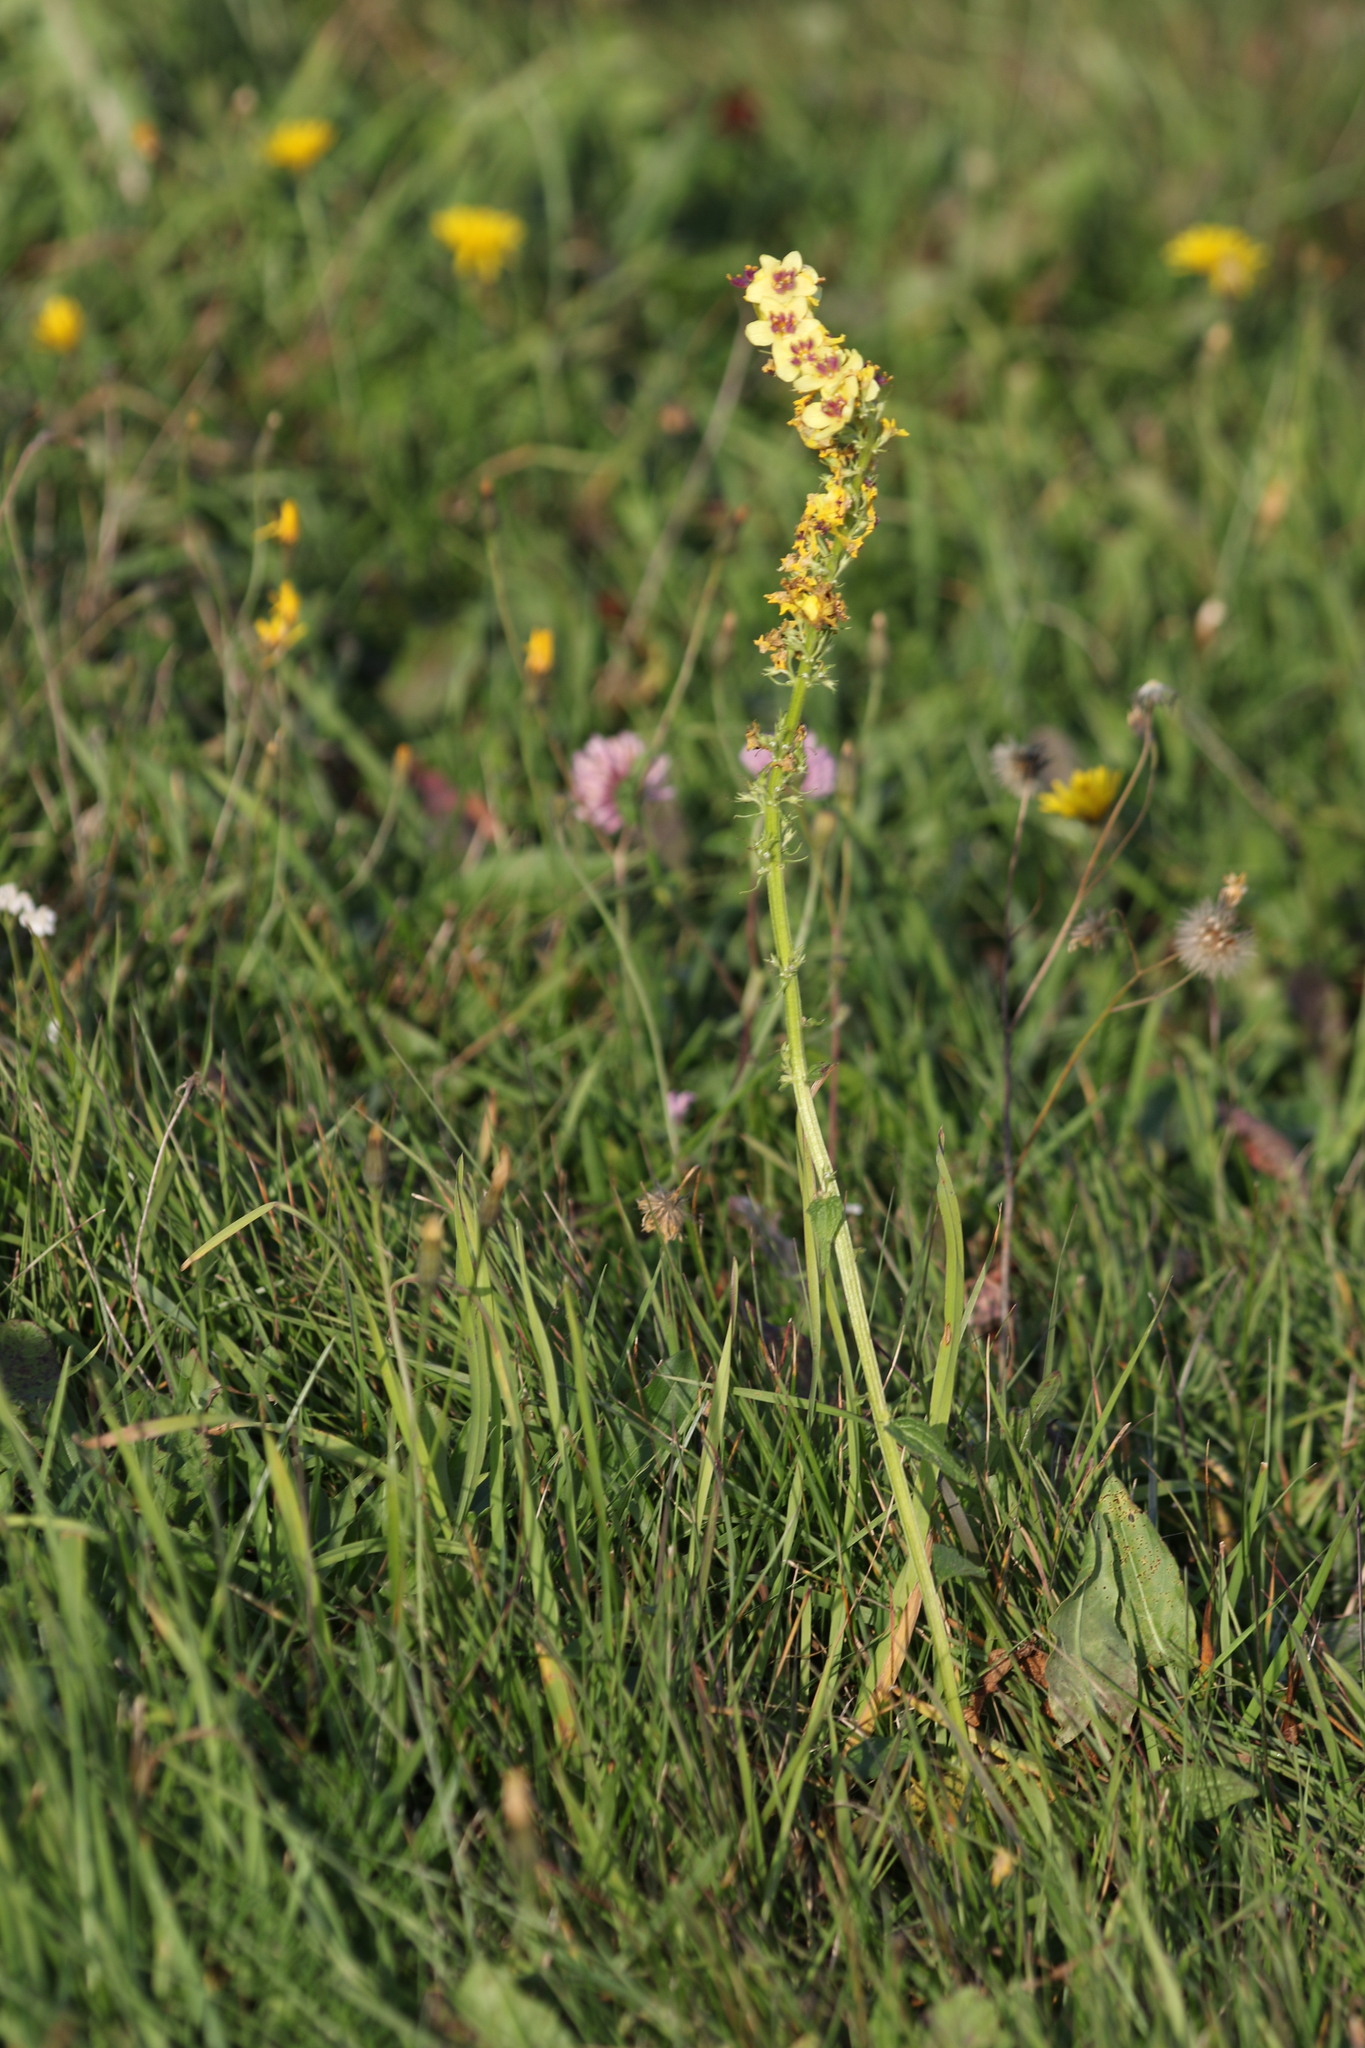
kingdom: Plantae
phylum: Tracheophyta
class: Magnoliopsida
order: Lamiales
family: Scrophulariaceae
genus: Verbascum
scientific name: Verbascum nigrum
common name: Dark mullein
